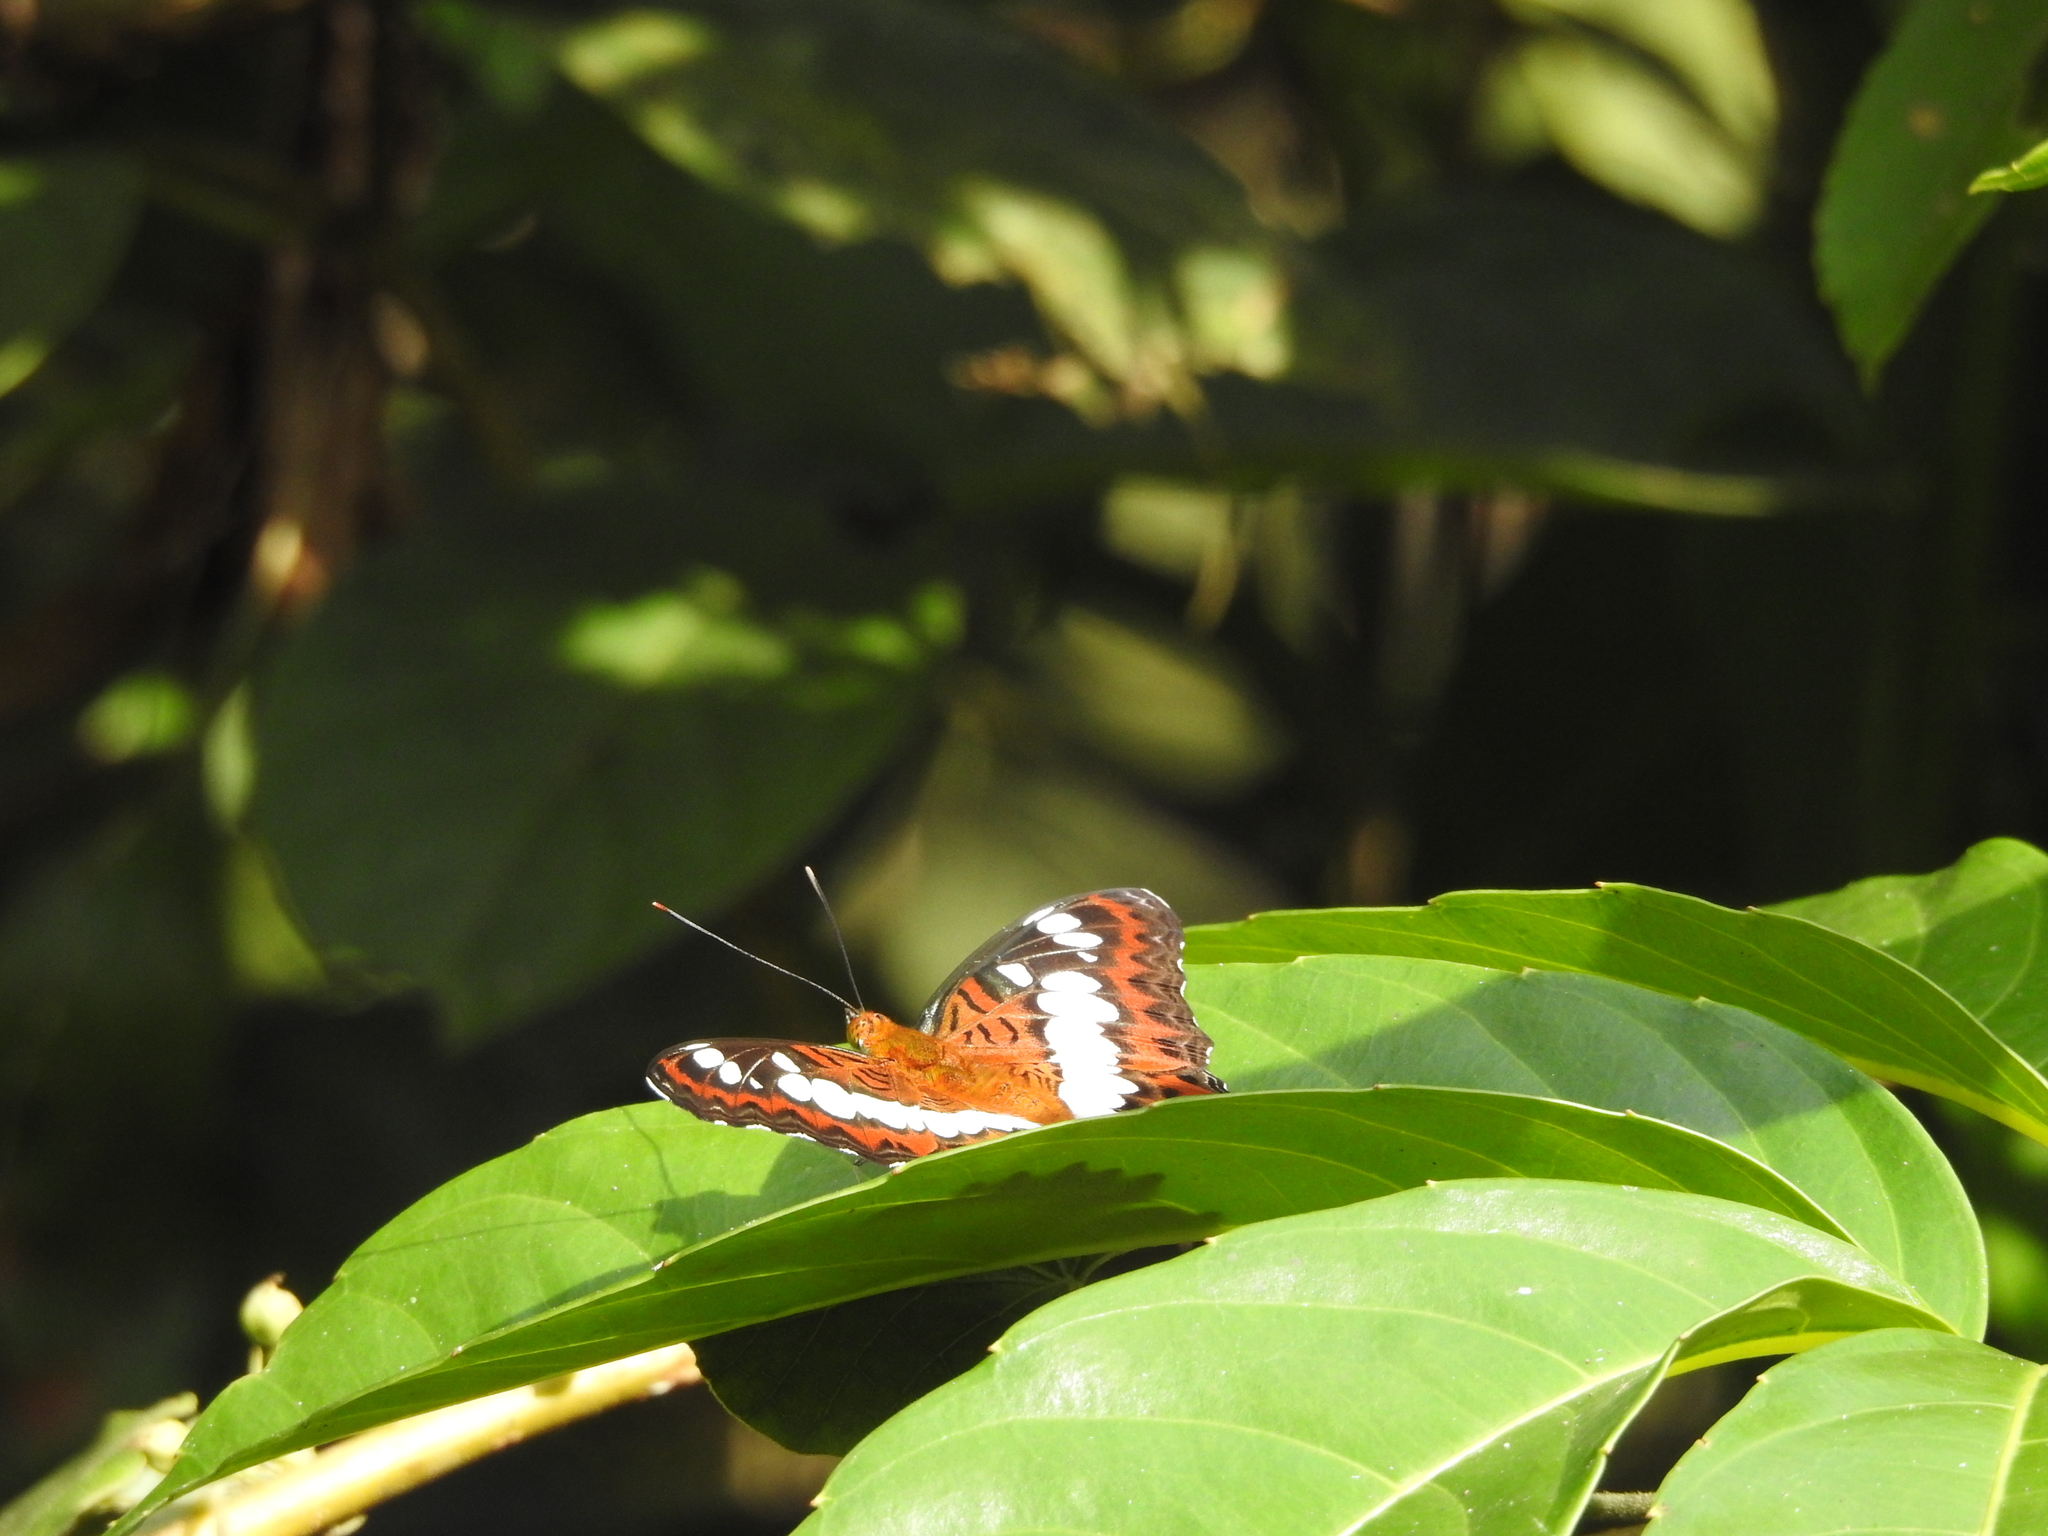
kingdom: Animalia
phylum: Arthropoda
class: Insecta
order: Lepidoptera
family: Nymphalidae
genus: Limenitis
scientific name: Limenitis Moduza procris
